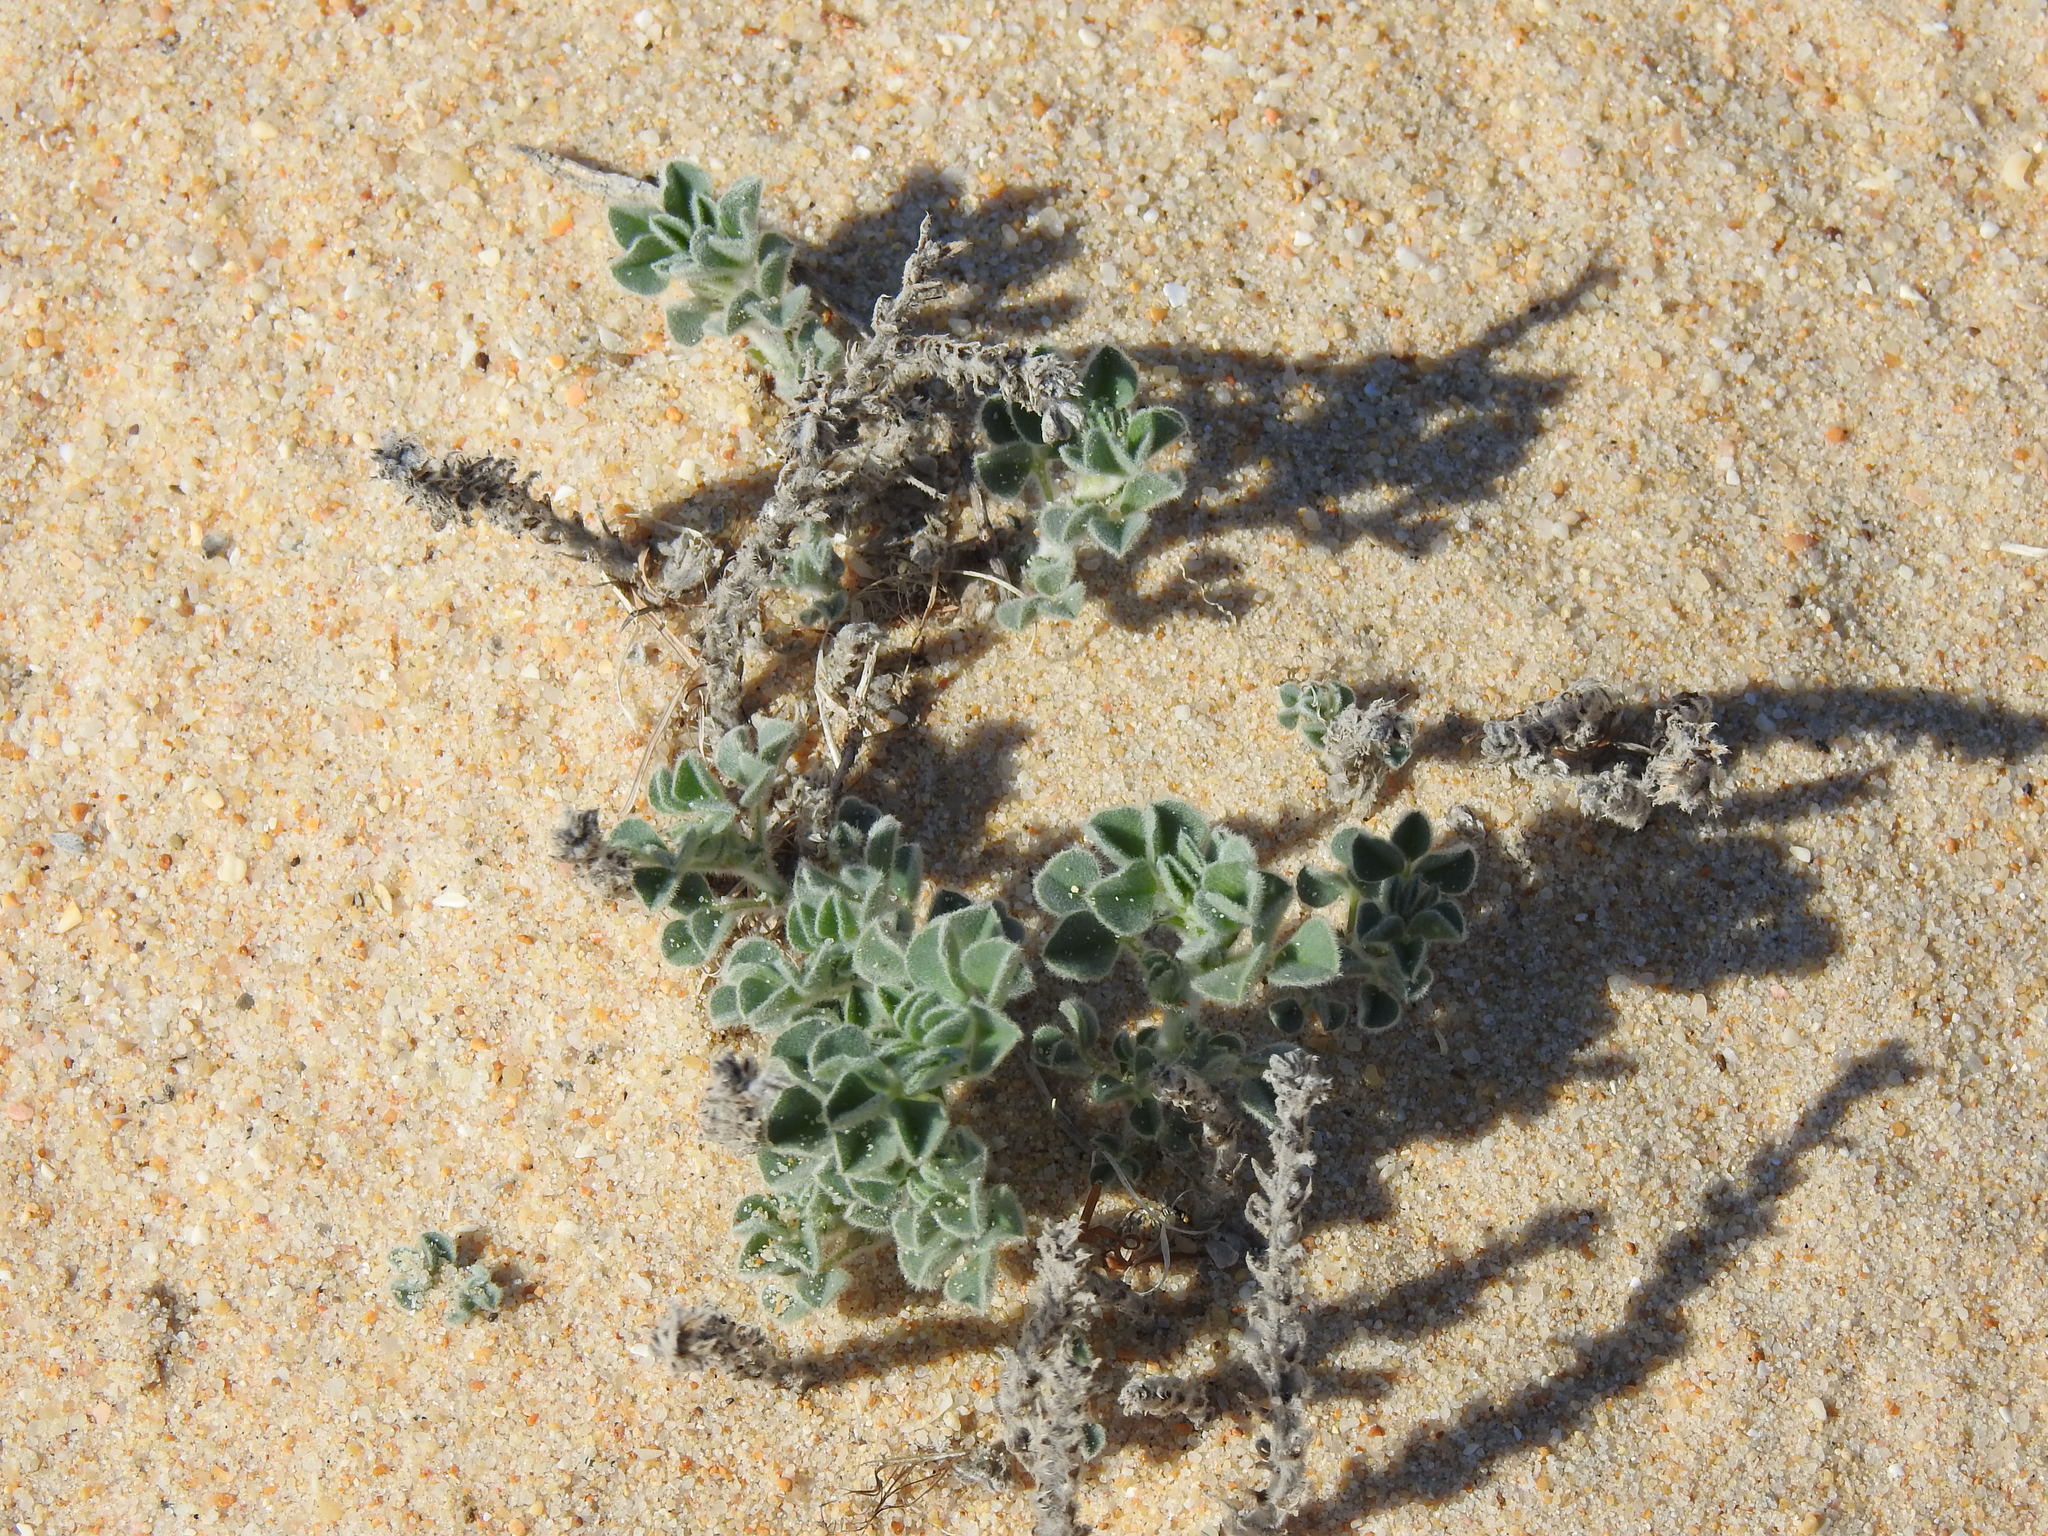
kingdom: Plantae
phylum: Tracheophyta
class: Magnoliopsida
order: Fabales
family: Fabaceae
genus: Medicago
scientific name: Medicago marina
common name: Sea medick
